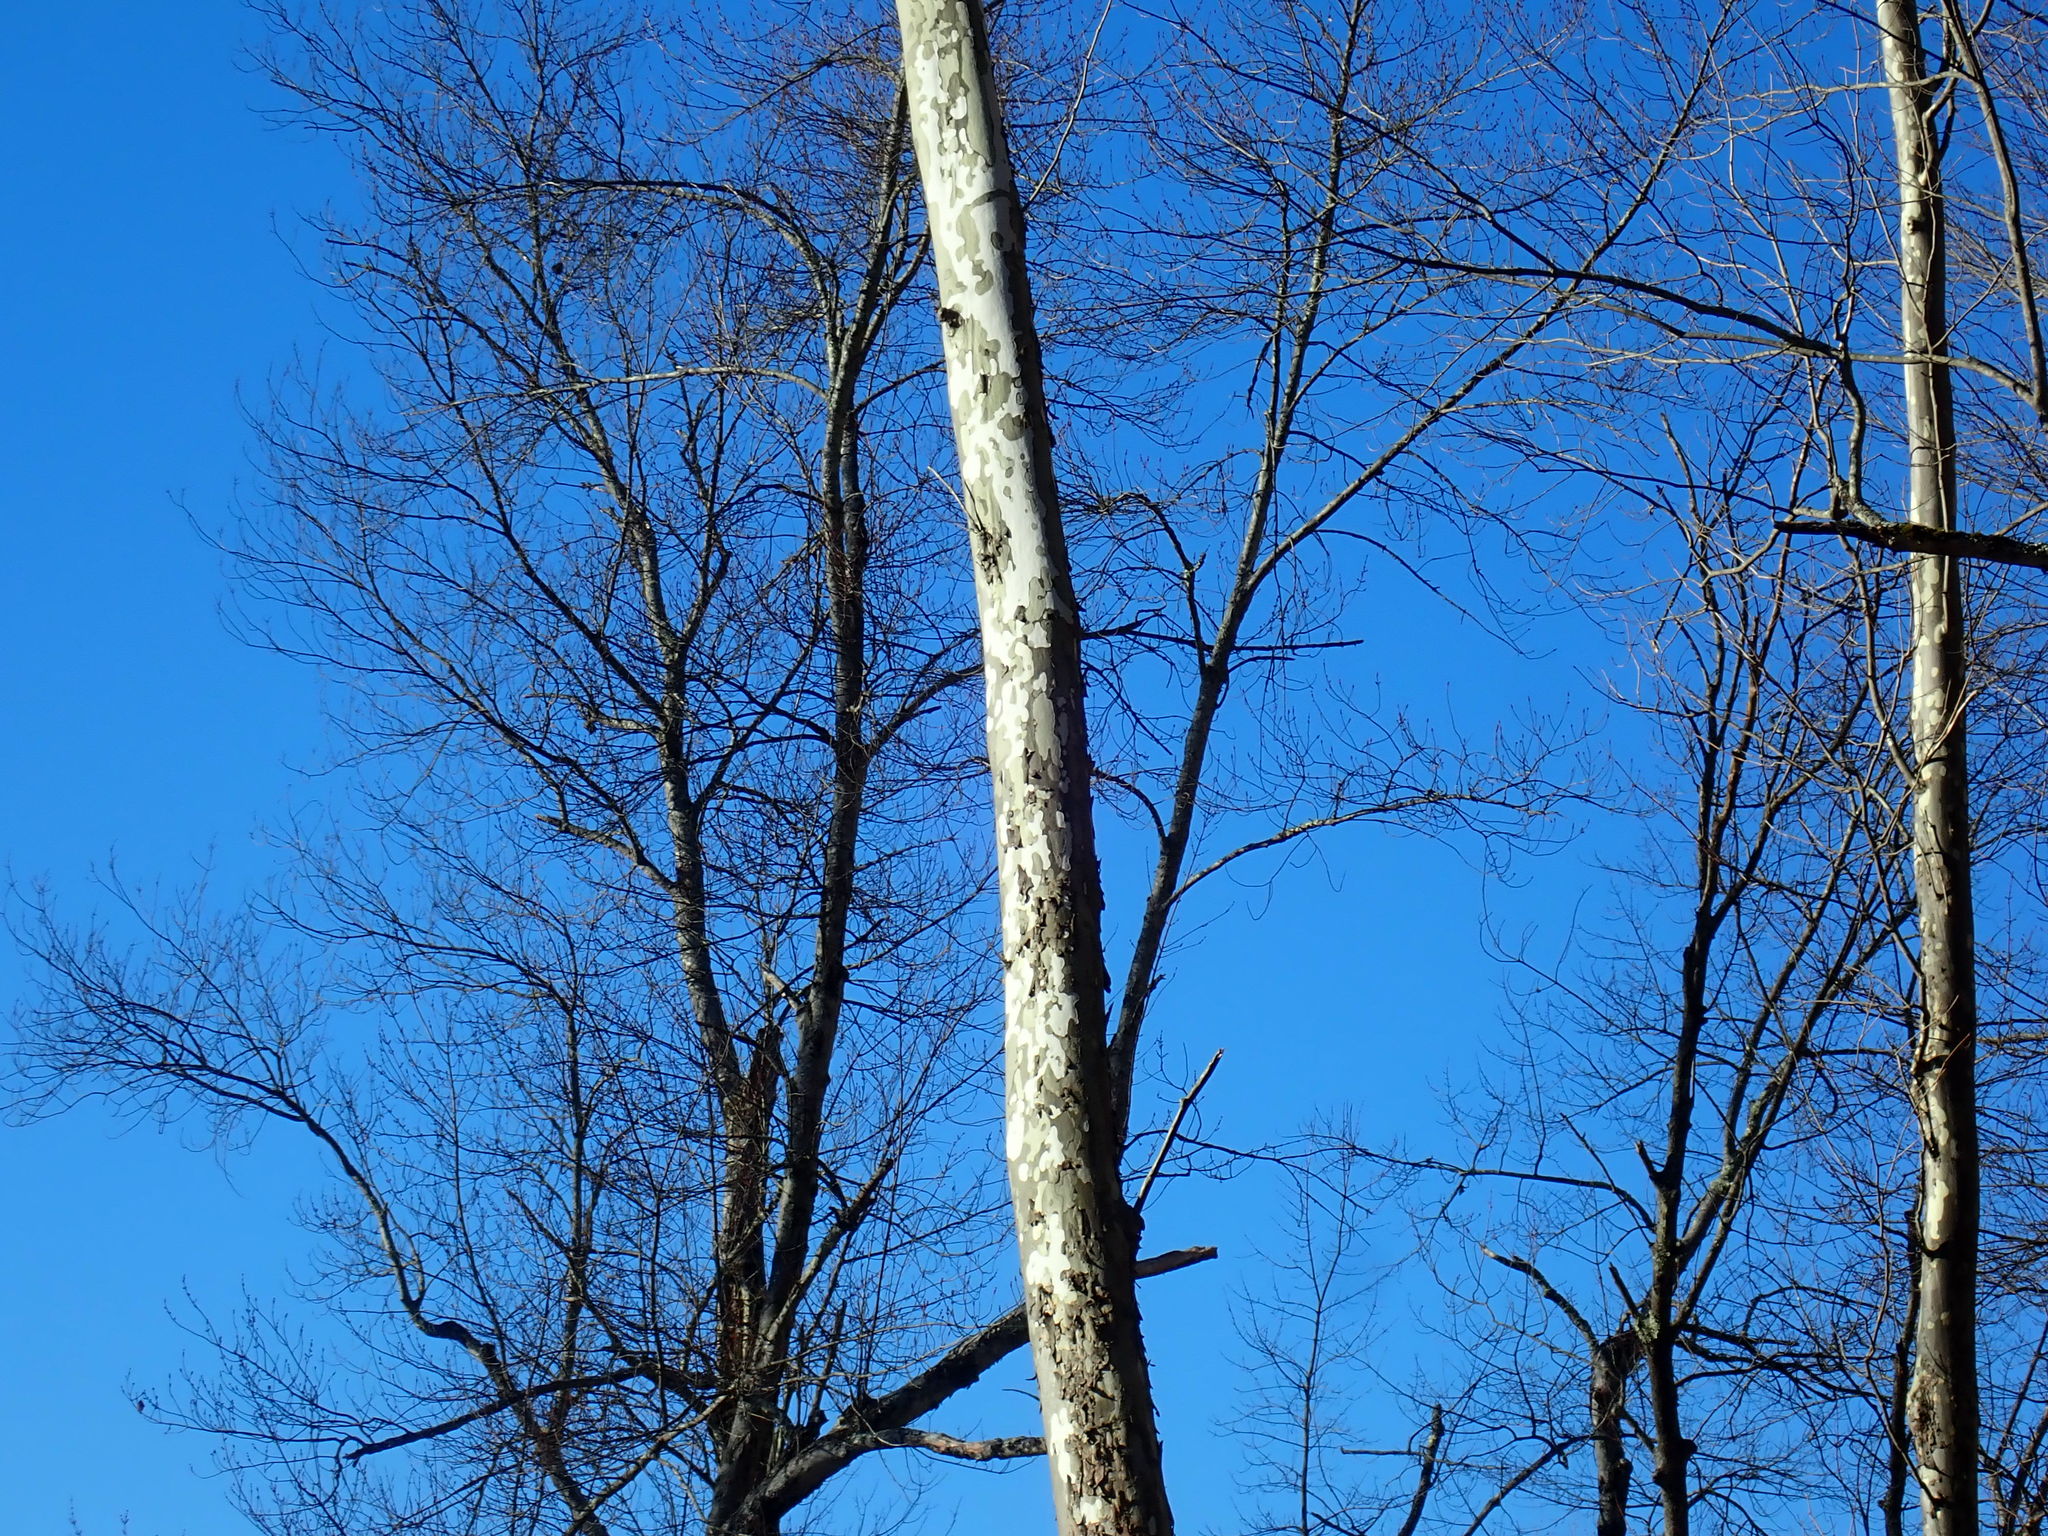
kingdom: Plantae
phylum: Tracheophyta
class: Magnoliopsida
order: Proteales
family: Platanaceae
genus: Platanus
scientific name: Platanus occidentalis
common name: American sycamore
